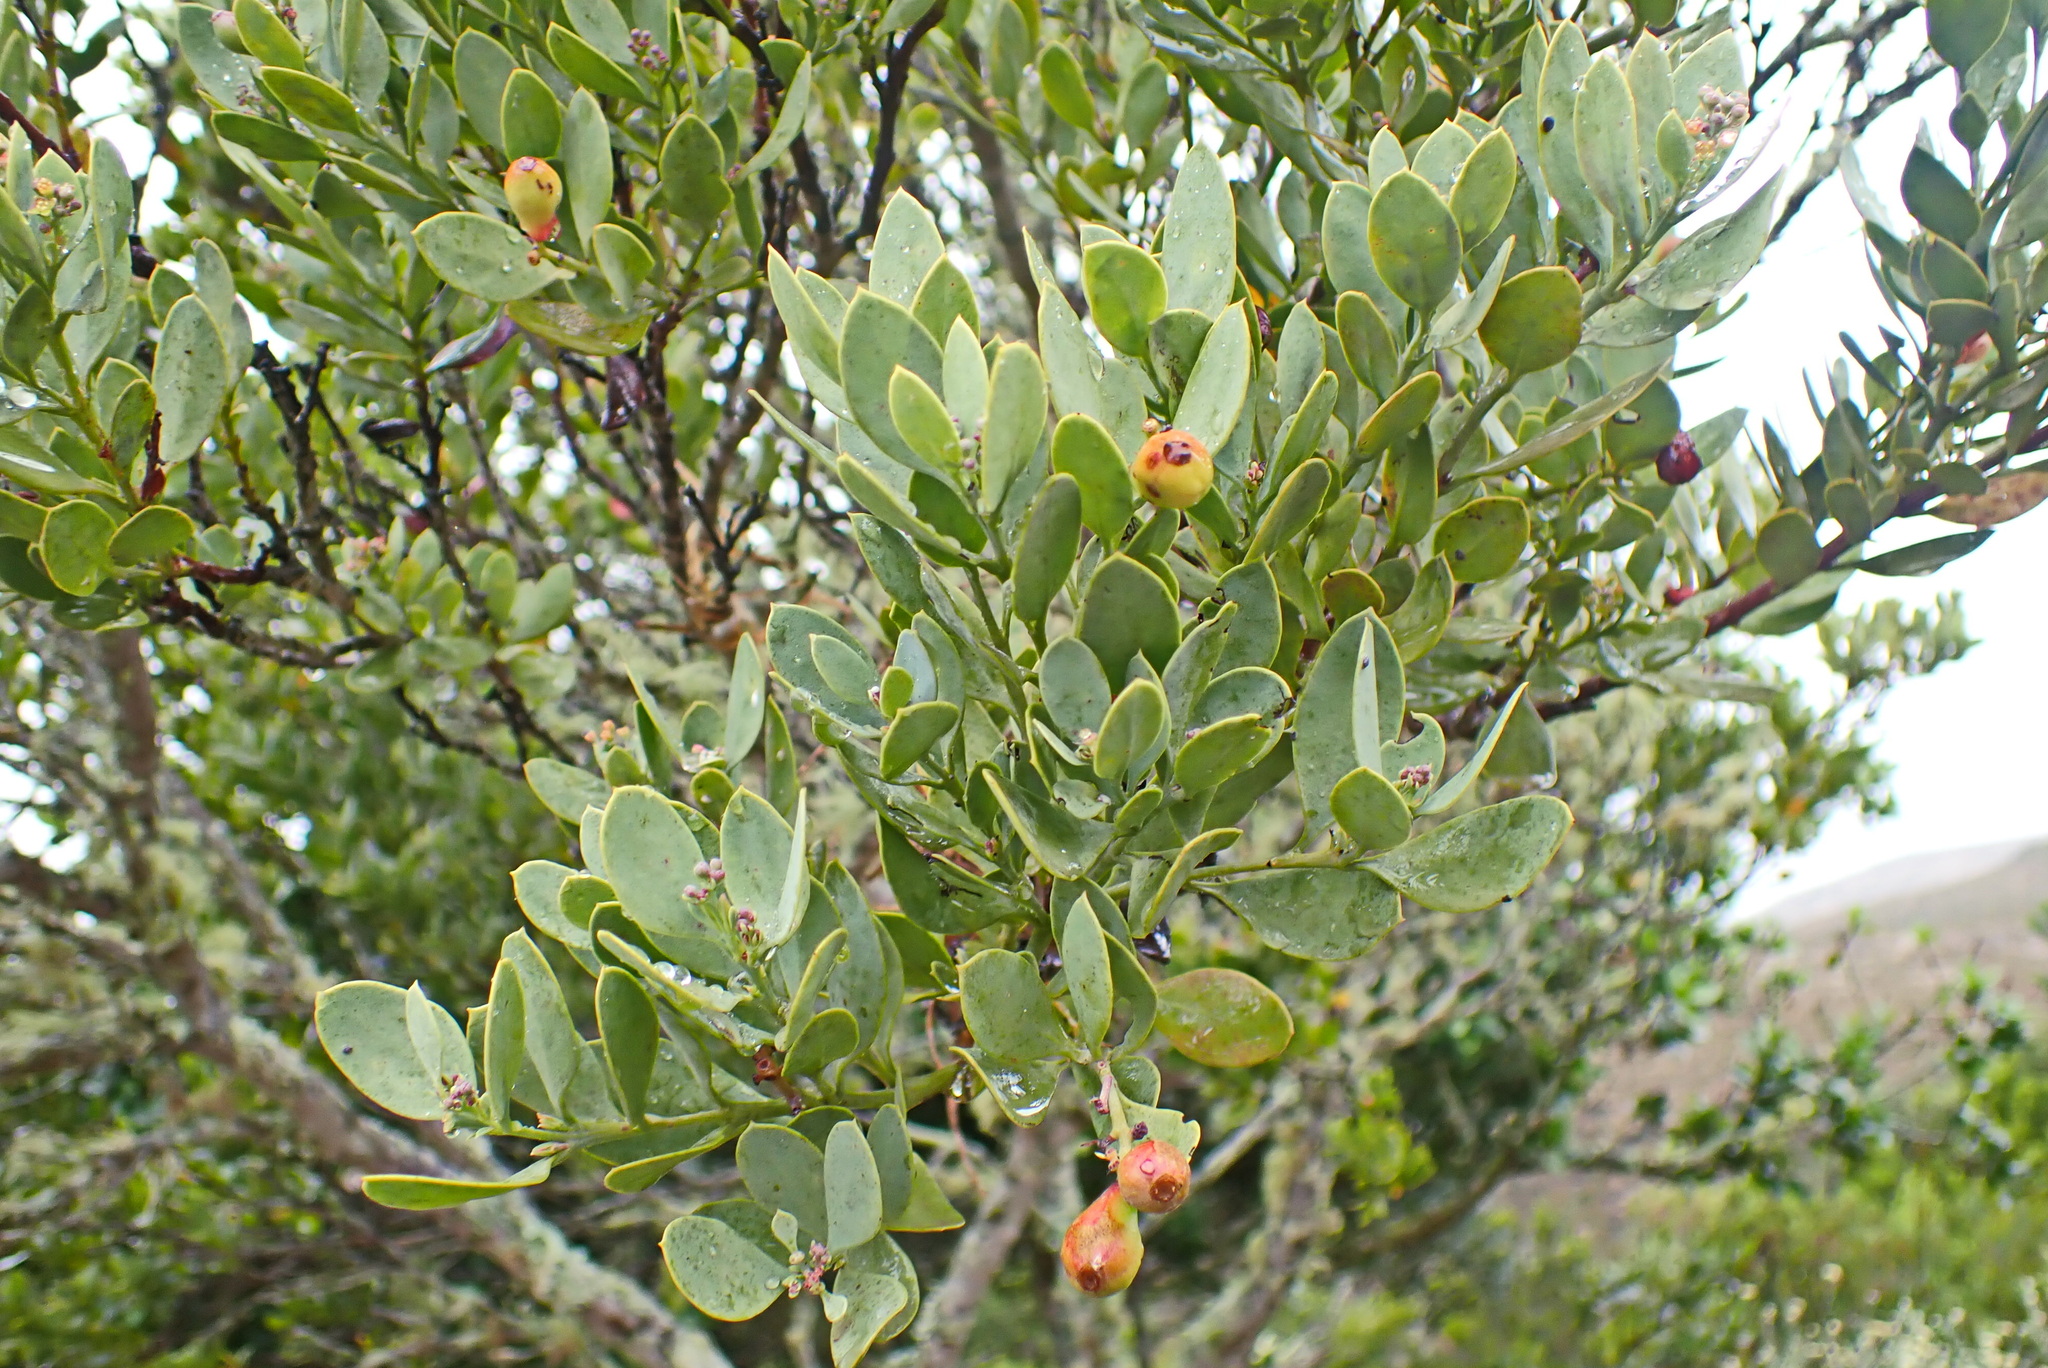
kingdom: Plantae
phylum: Tracheophyta
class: Magnoliopsida
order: Santalales
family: Santalaceae
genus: Osyris
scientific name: Osyris compressa
